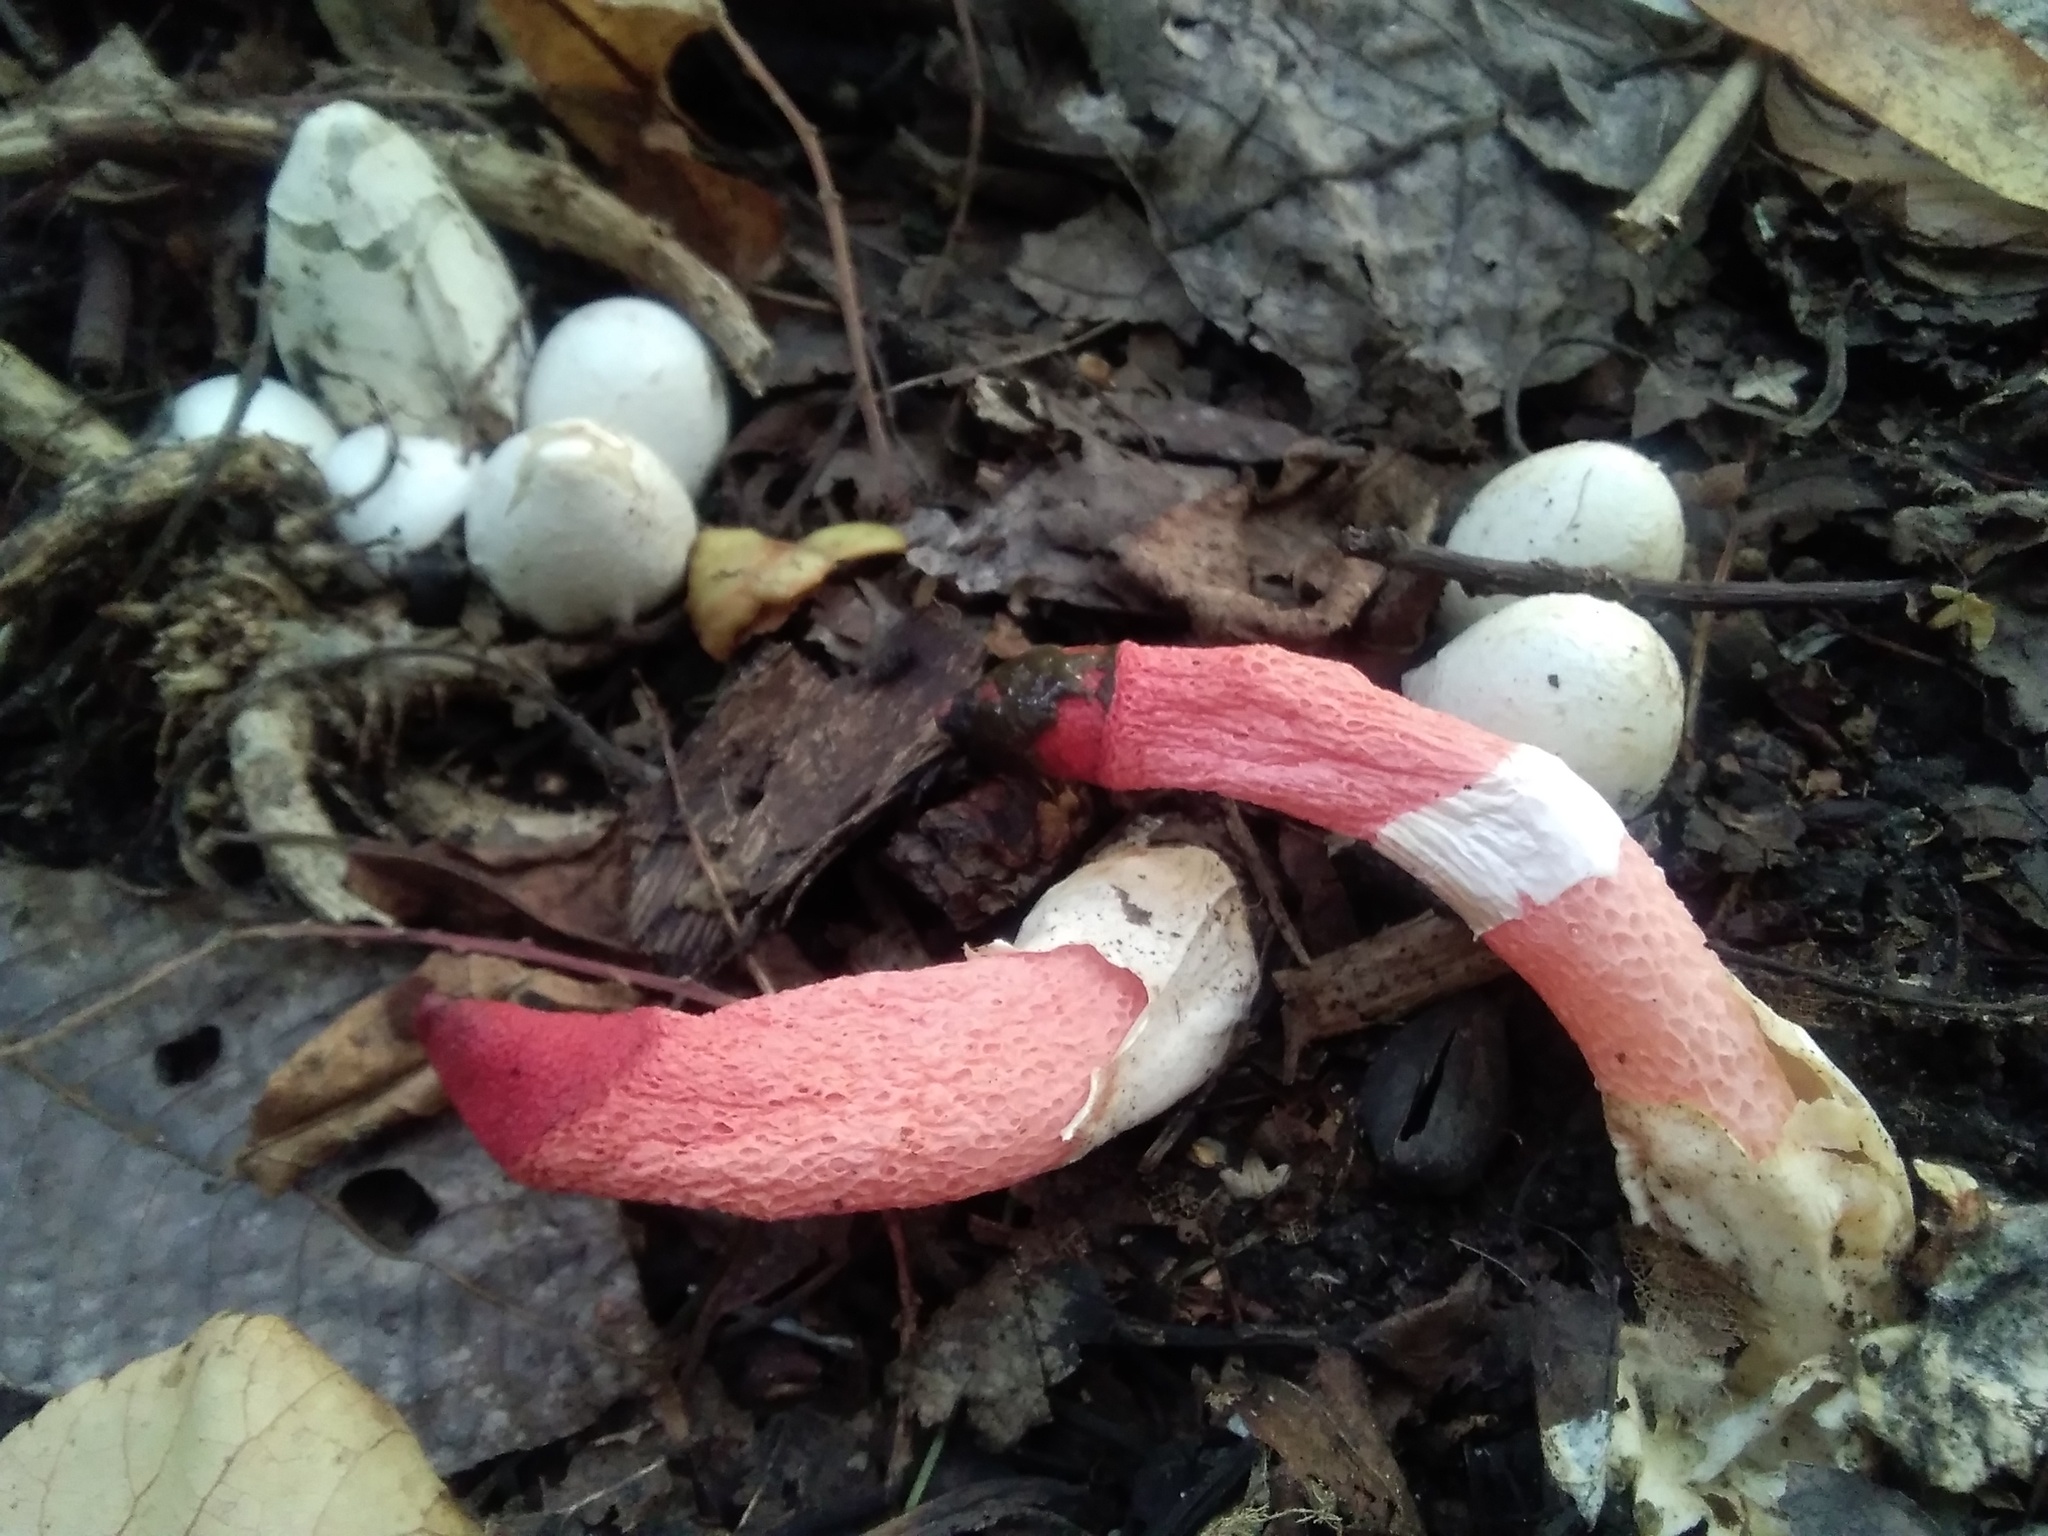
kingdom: Fungi
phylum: Basidiomycota
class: Agaricomycetes
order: Phallales
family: Phallaceae
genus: Mutinus
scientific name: Mutinus ravenelii
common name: Red stinkhorn
